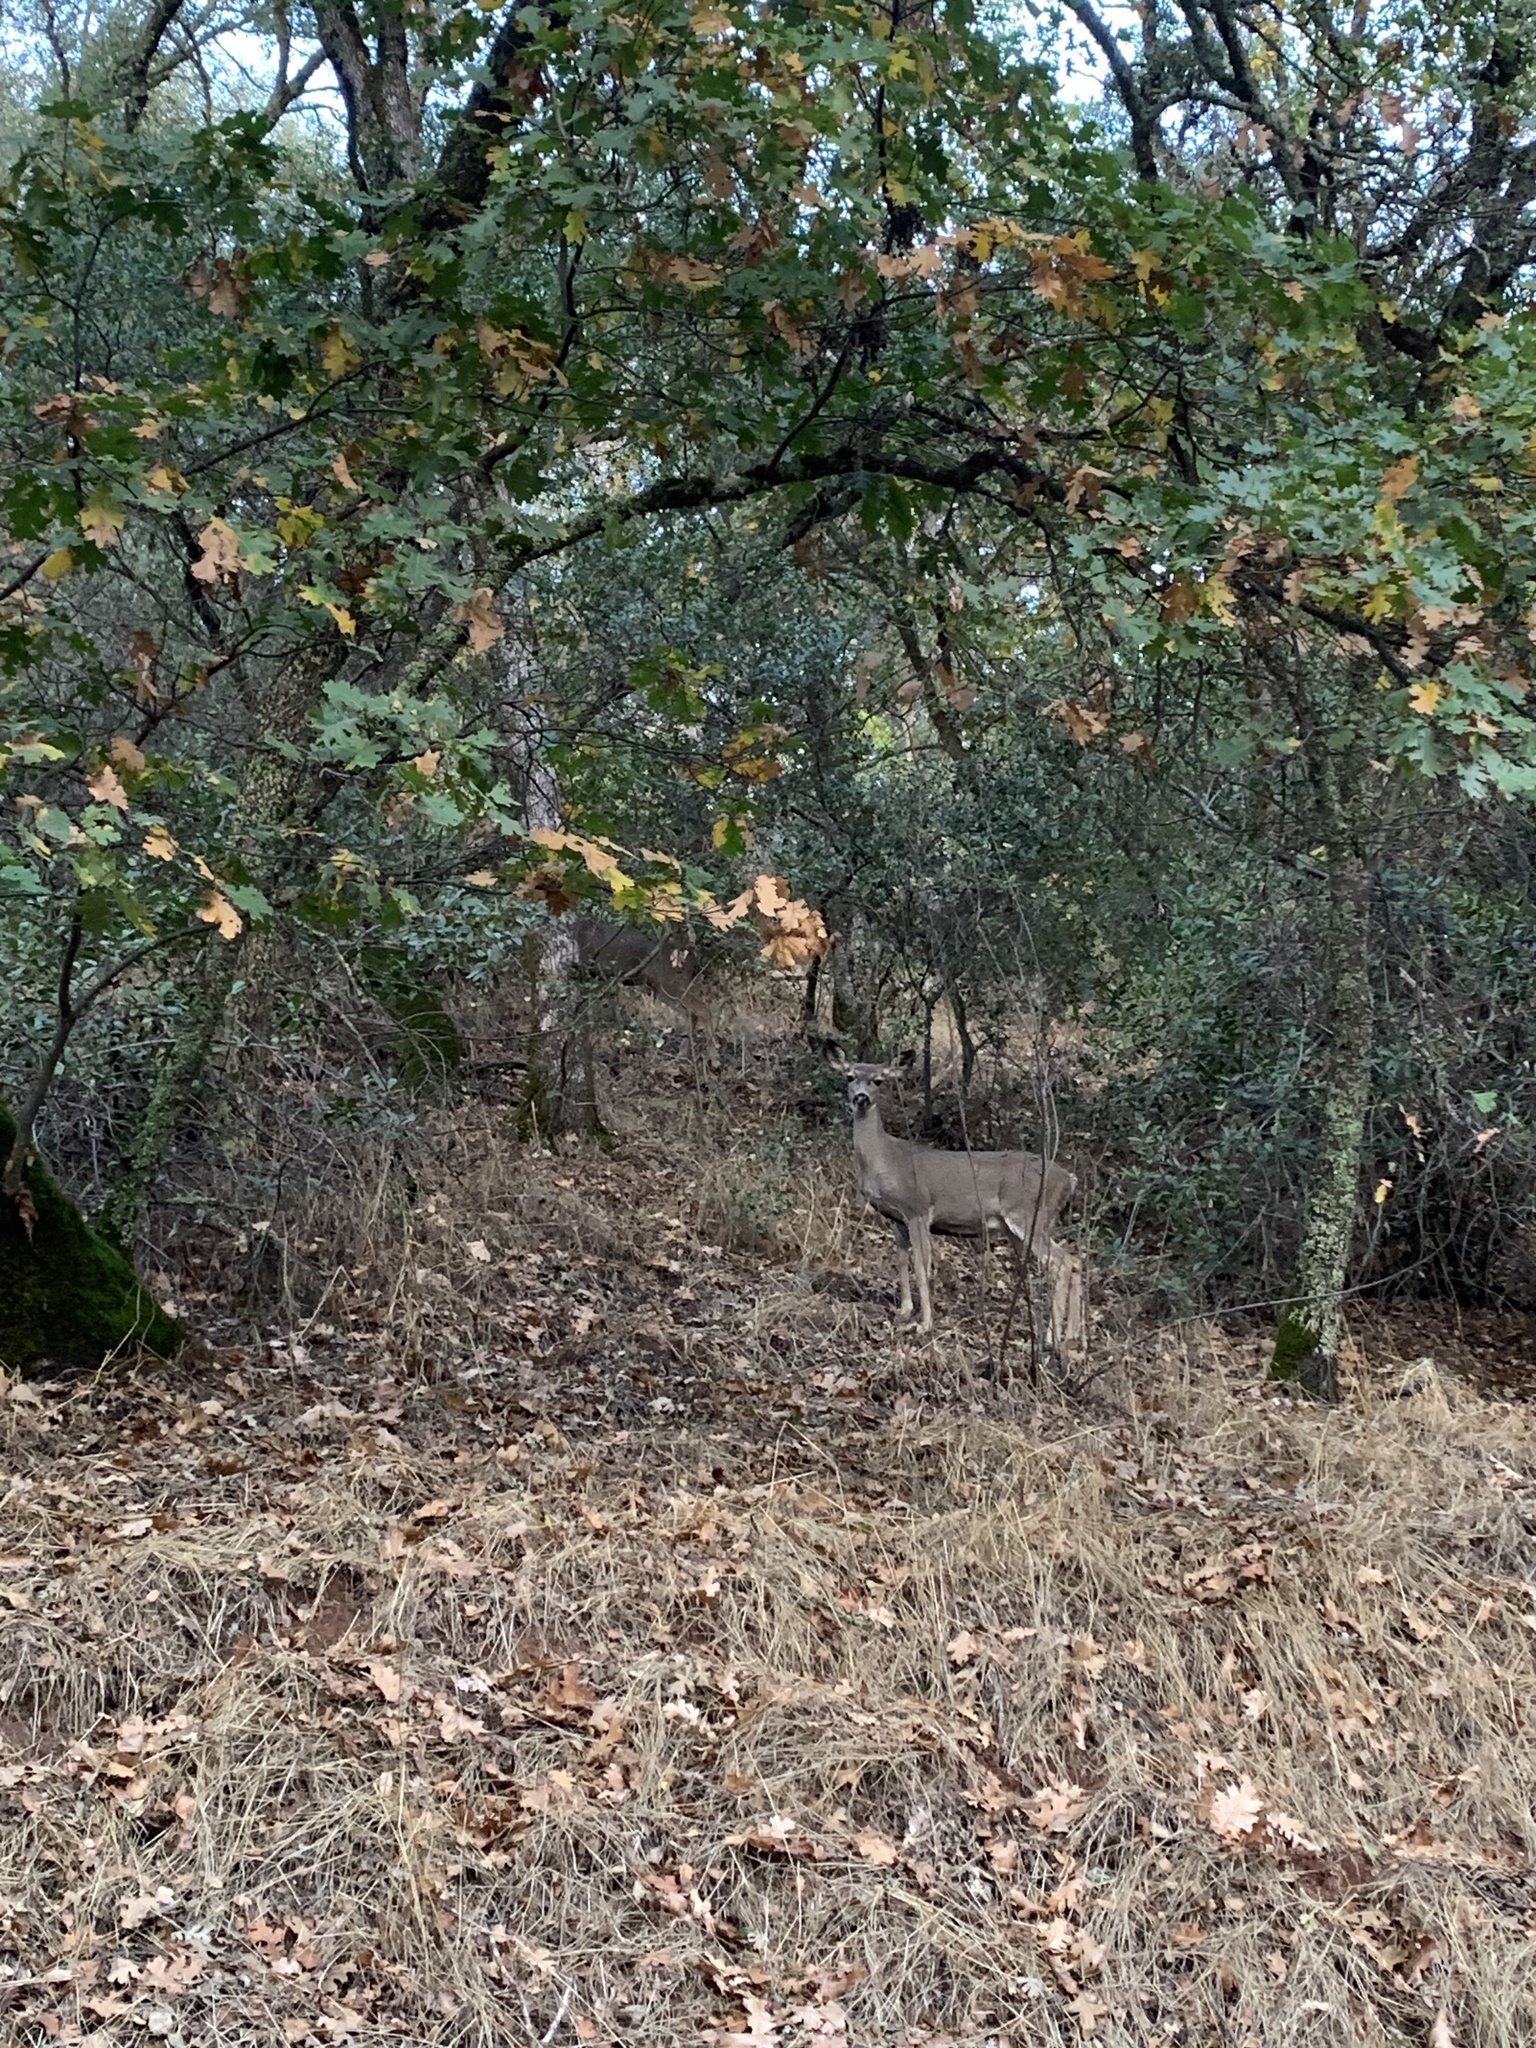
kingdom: Animalia
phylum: Chordata
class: Mammalia
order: Artiodactyla
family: Cervidae
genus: Odocoileus
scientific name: Odocoileus hemionus
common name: Mule deer
